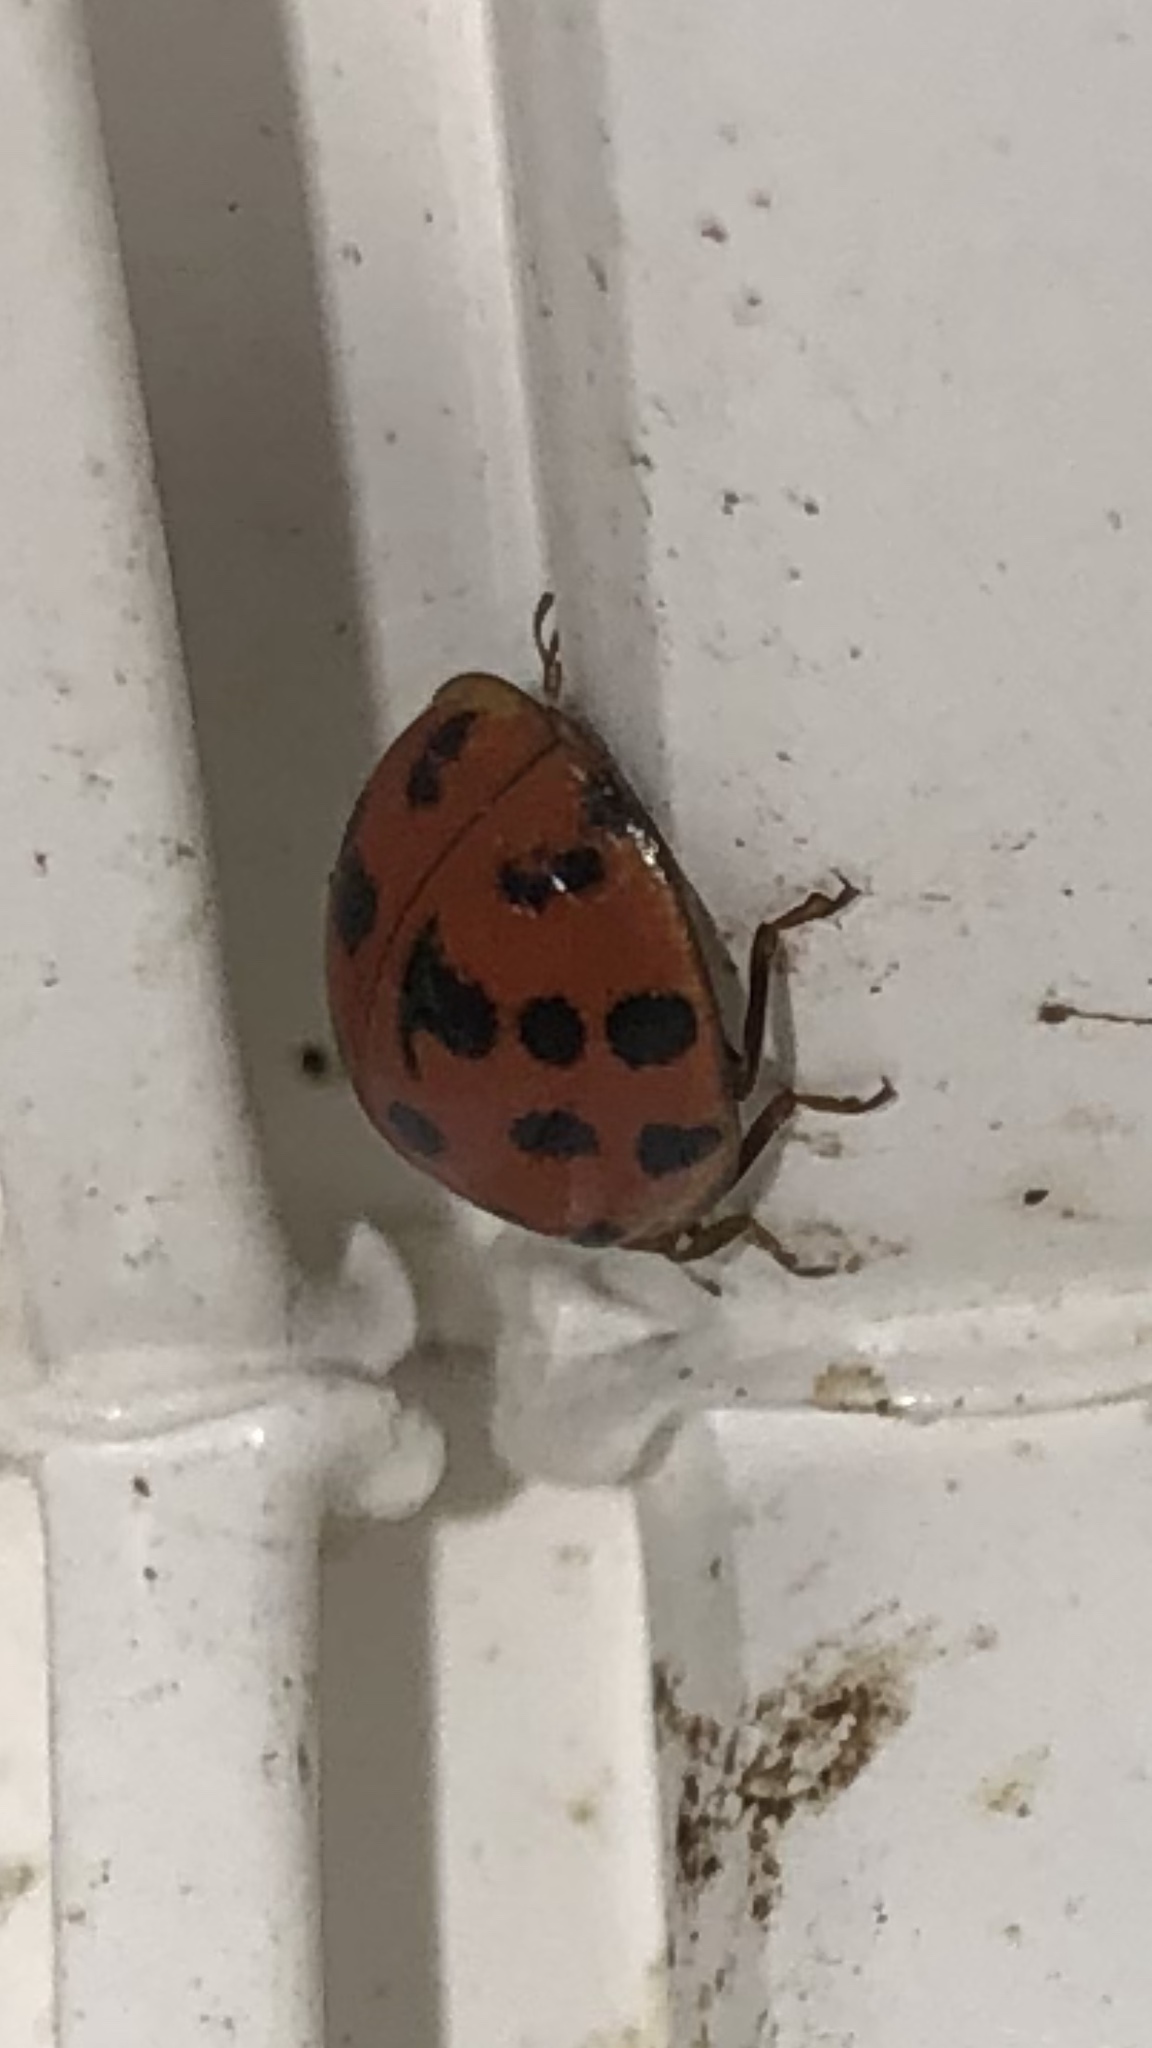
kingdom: Animalia
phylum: Arthropoda
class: Insecta
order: Coleoptera
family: Coccinellidae
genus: Harmonia
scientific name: Harmonia axyridis
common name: Harlequin ladybird
